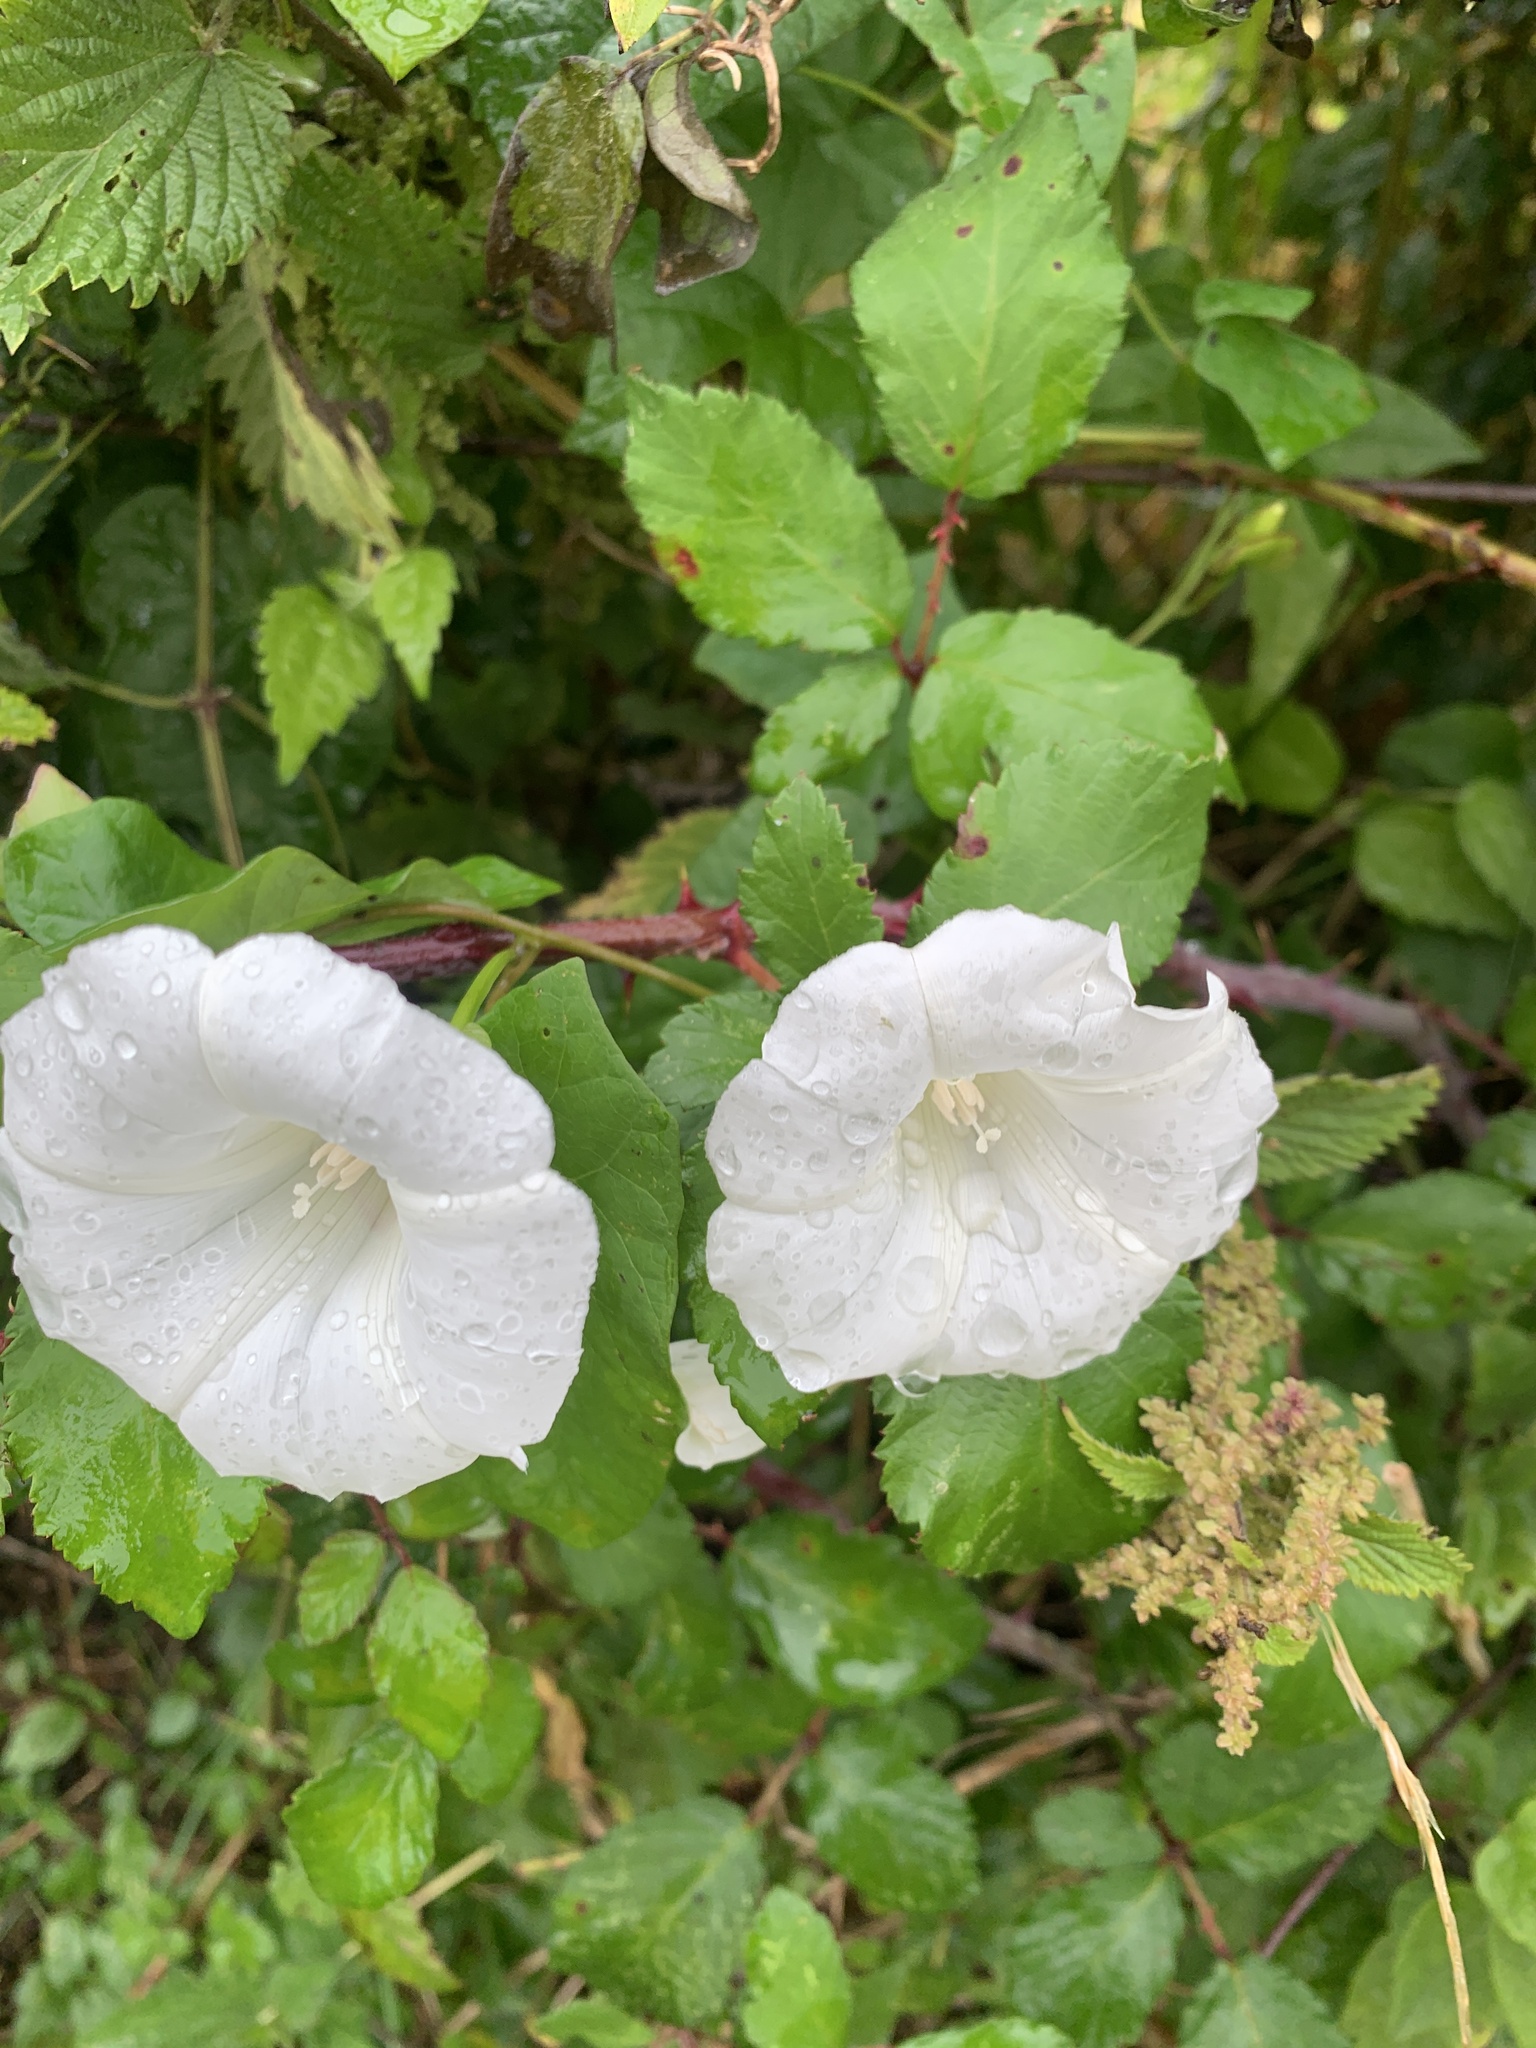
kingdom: Plantae
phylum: Tracheophyta
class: Magnoliopsida
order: Solanales
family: Convolvulaceae
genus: Calystegia
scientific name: Calystegia
